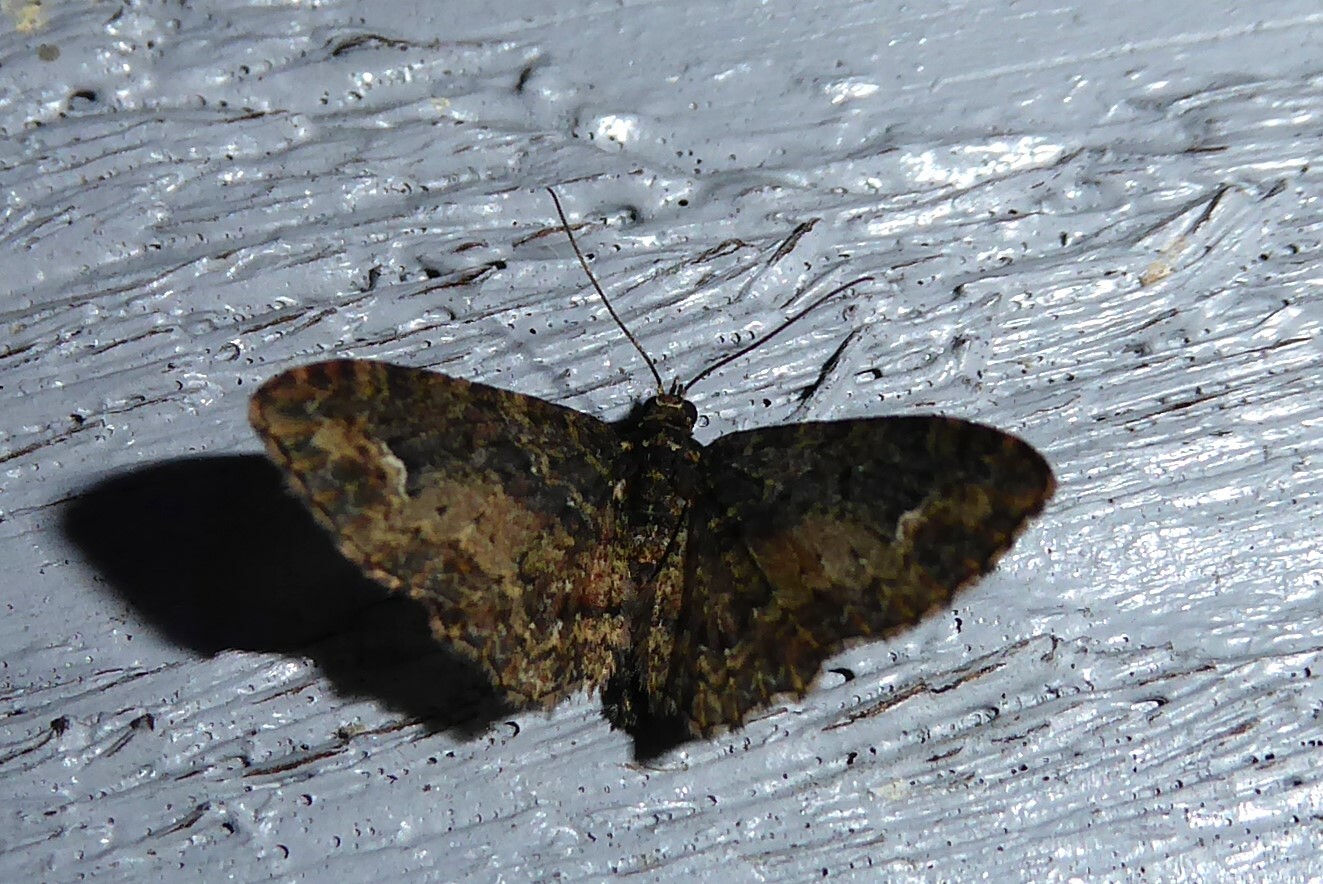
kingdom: Animalia
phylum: Arthropoda
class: Insecta
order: Lepidoptera
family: Geometridae
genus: Pasiphilodes
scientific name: Pasiphilodes testulata
